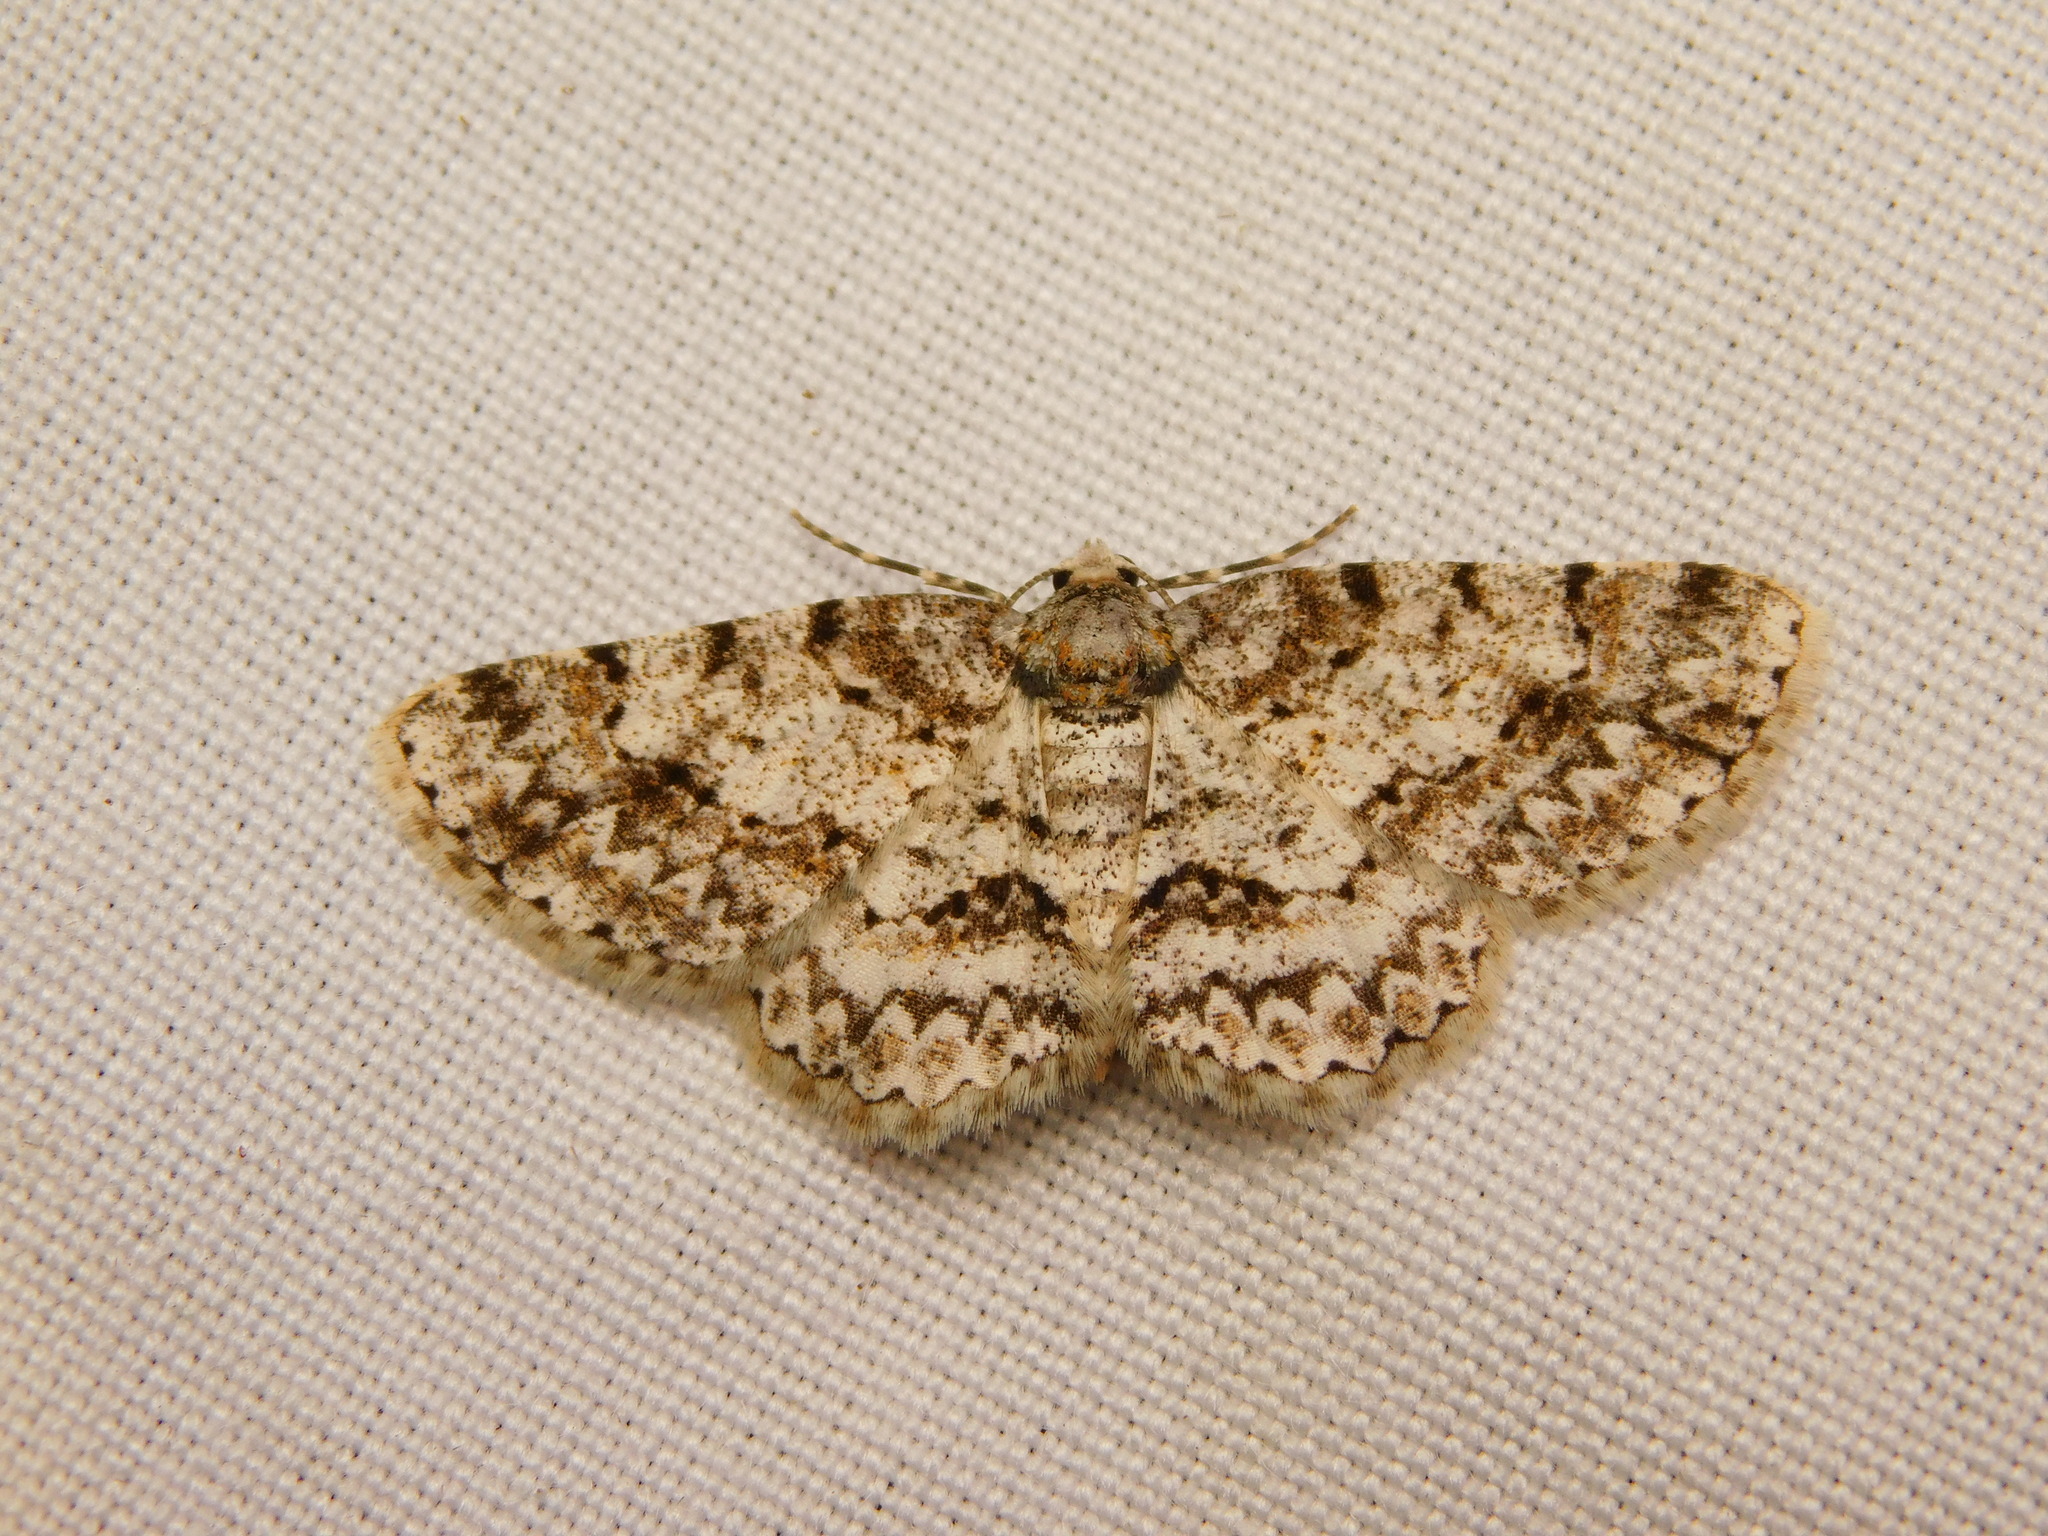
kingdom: Animalia
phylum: Arthropoda
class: Insecta
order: Lepidoptera
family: Geometridae
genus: Alcis
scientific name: Alcis nilgirica
